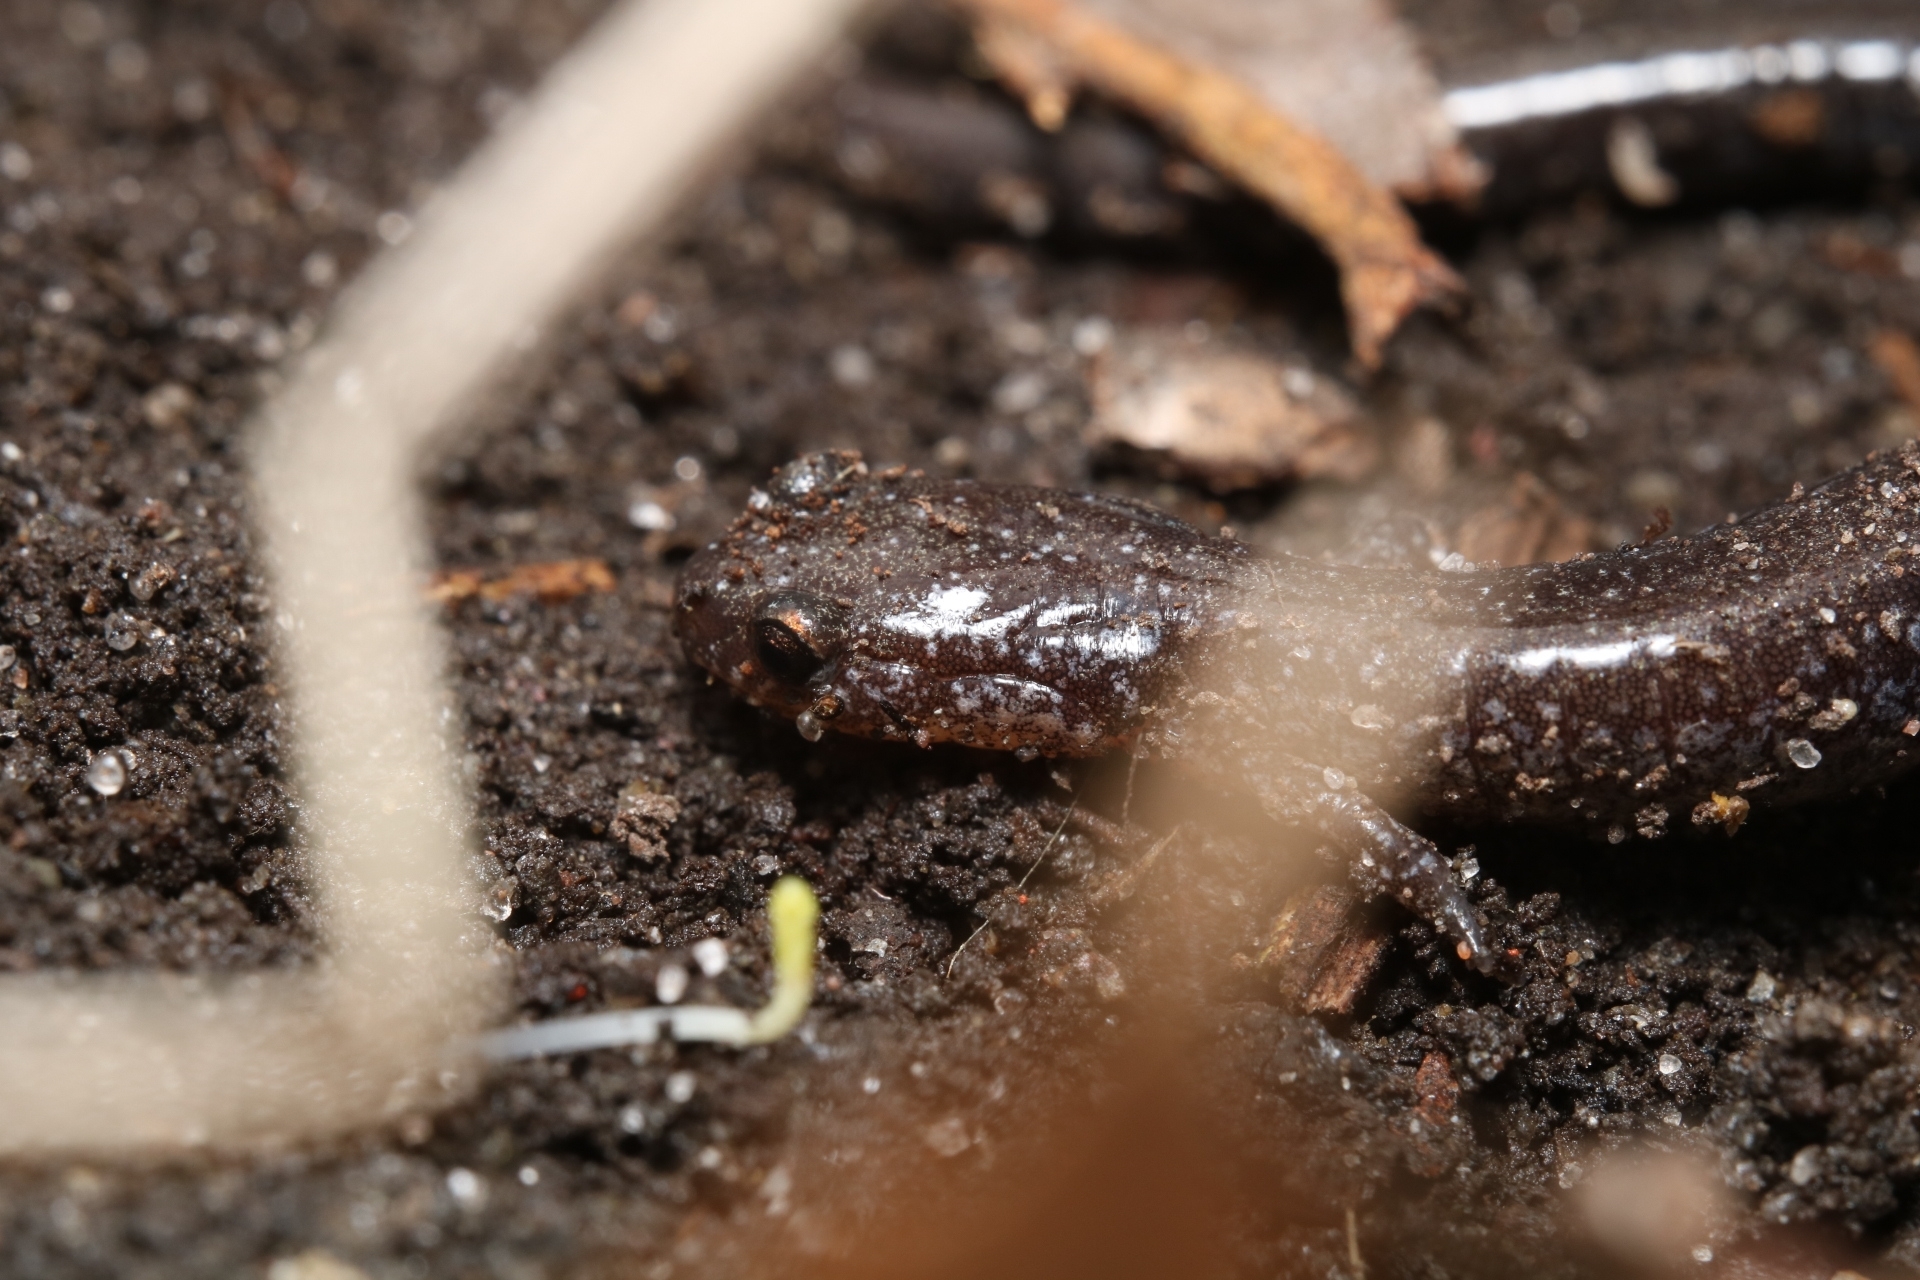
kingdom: Animalia
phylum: Chordata
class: Amphibia
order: Caudata
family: Plethodontidae
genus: Plethodon
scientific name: Plethodon cinereus
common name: Redback salamander
